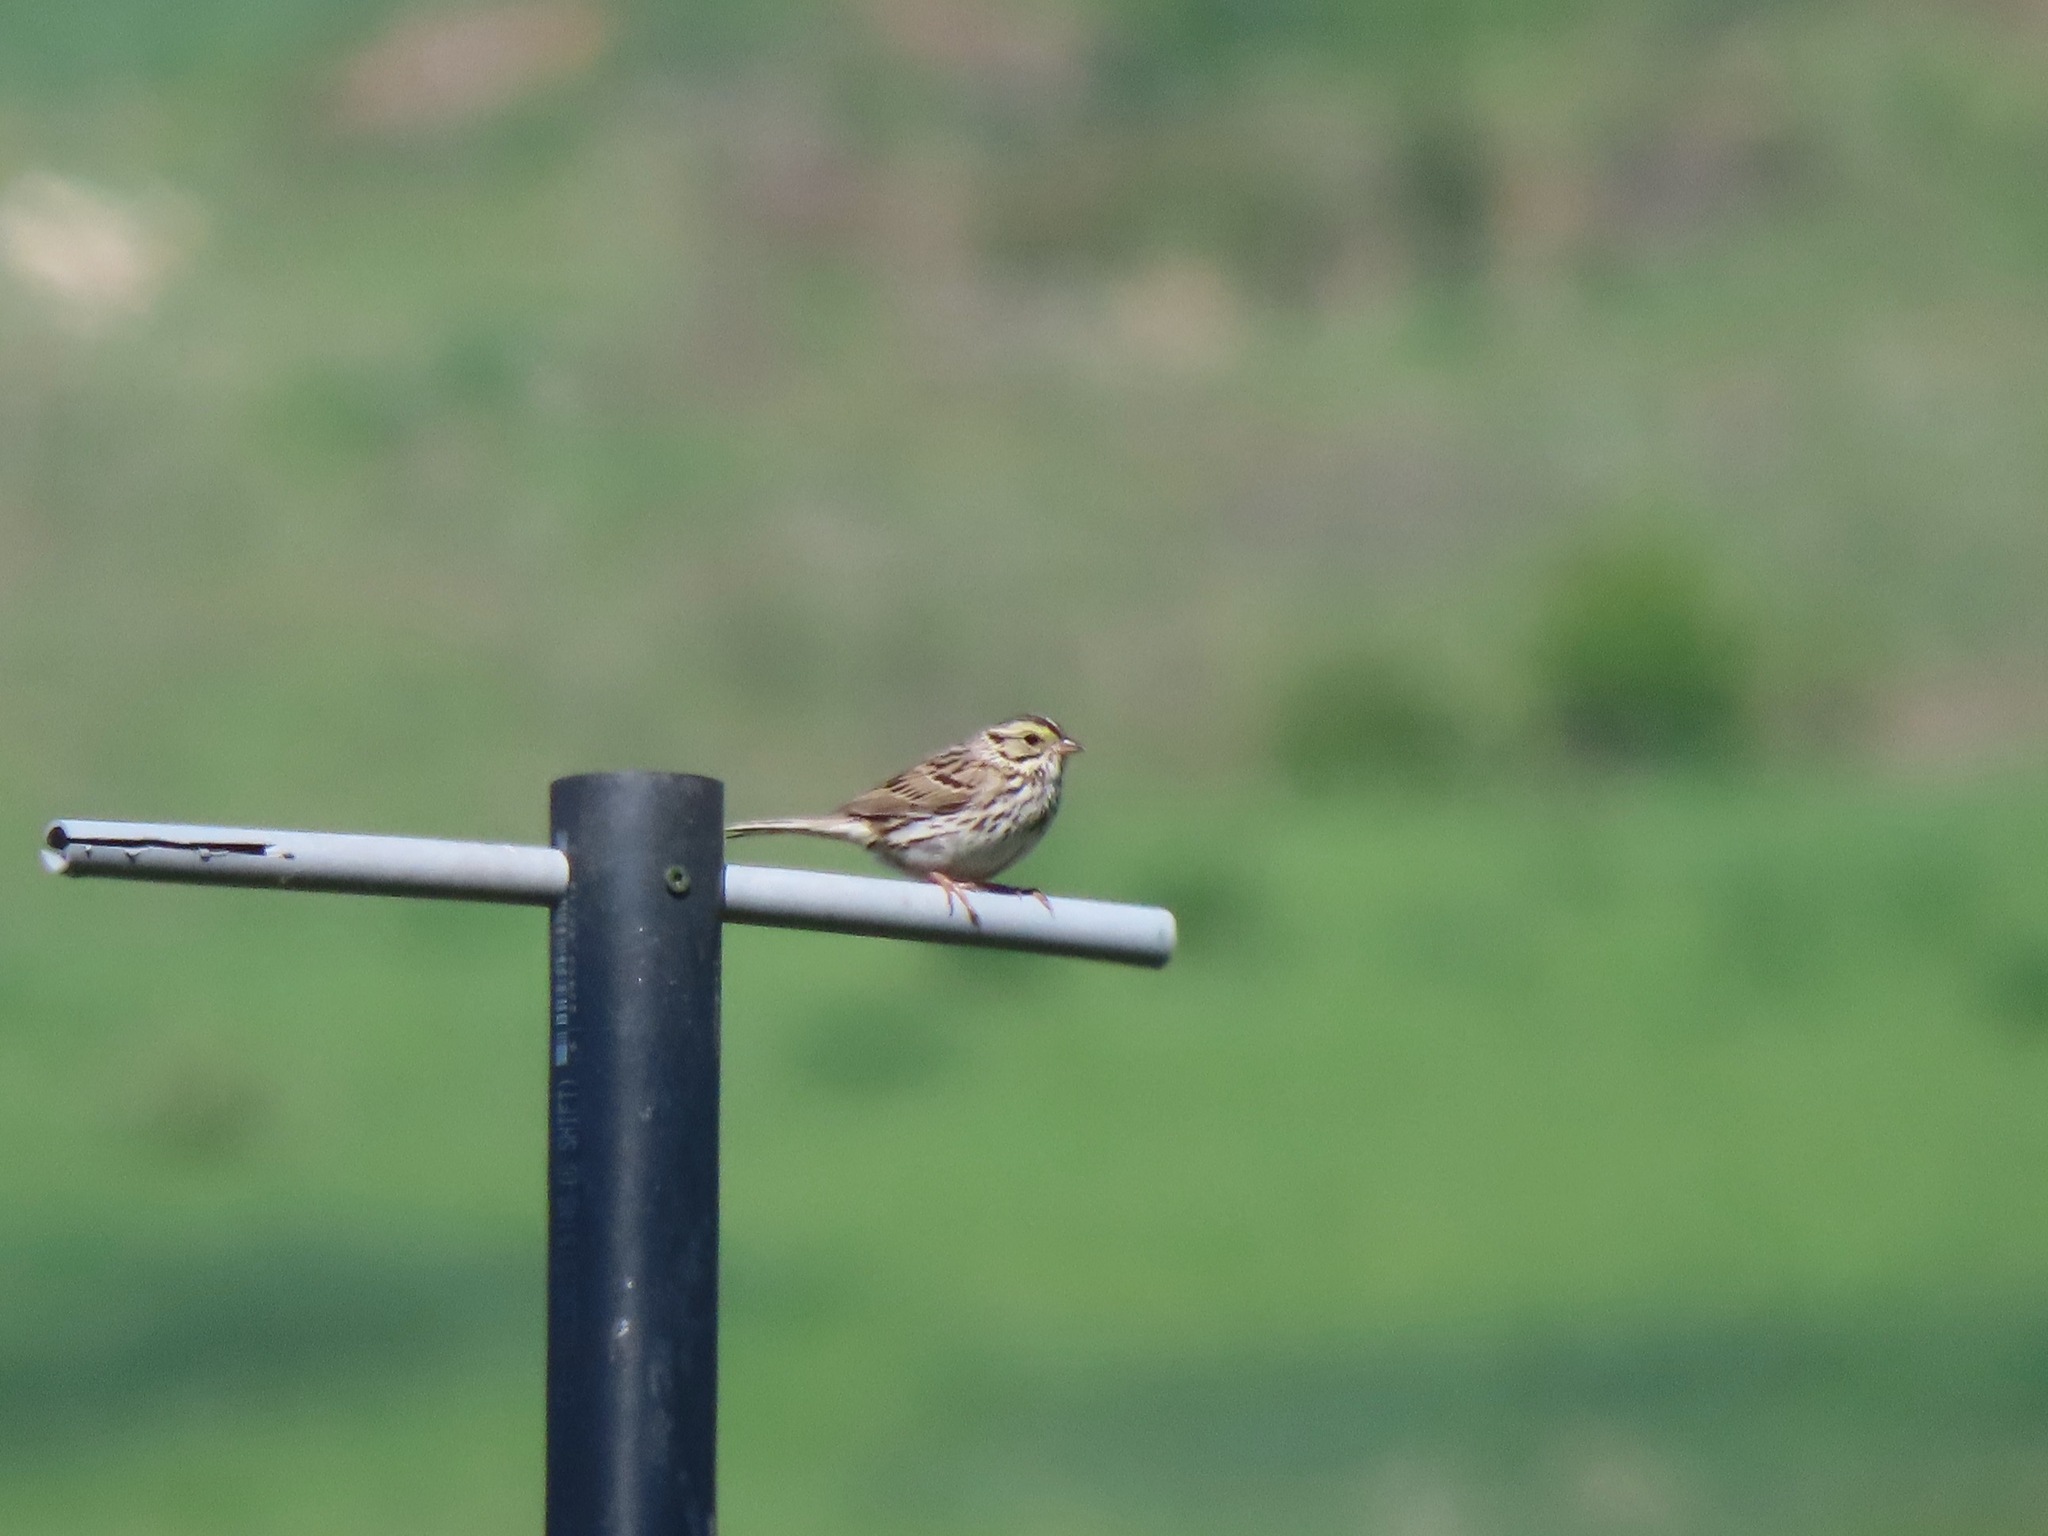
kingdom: Animalia
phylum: Chordata
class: Aves
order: Passeriformes
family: Passerellidae
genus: Passerculus
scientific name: Passerculus sandwichensis
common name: Savannah sparrow
